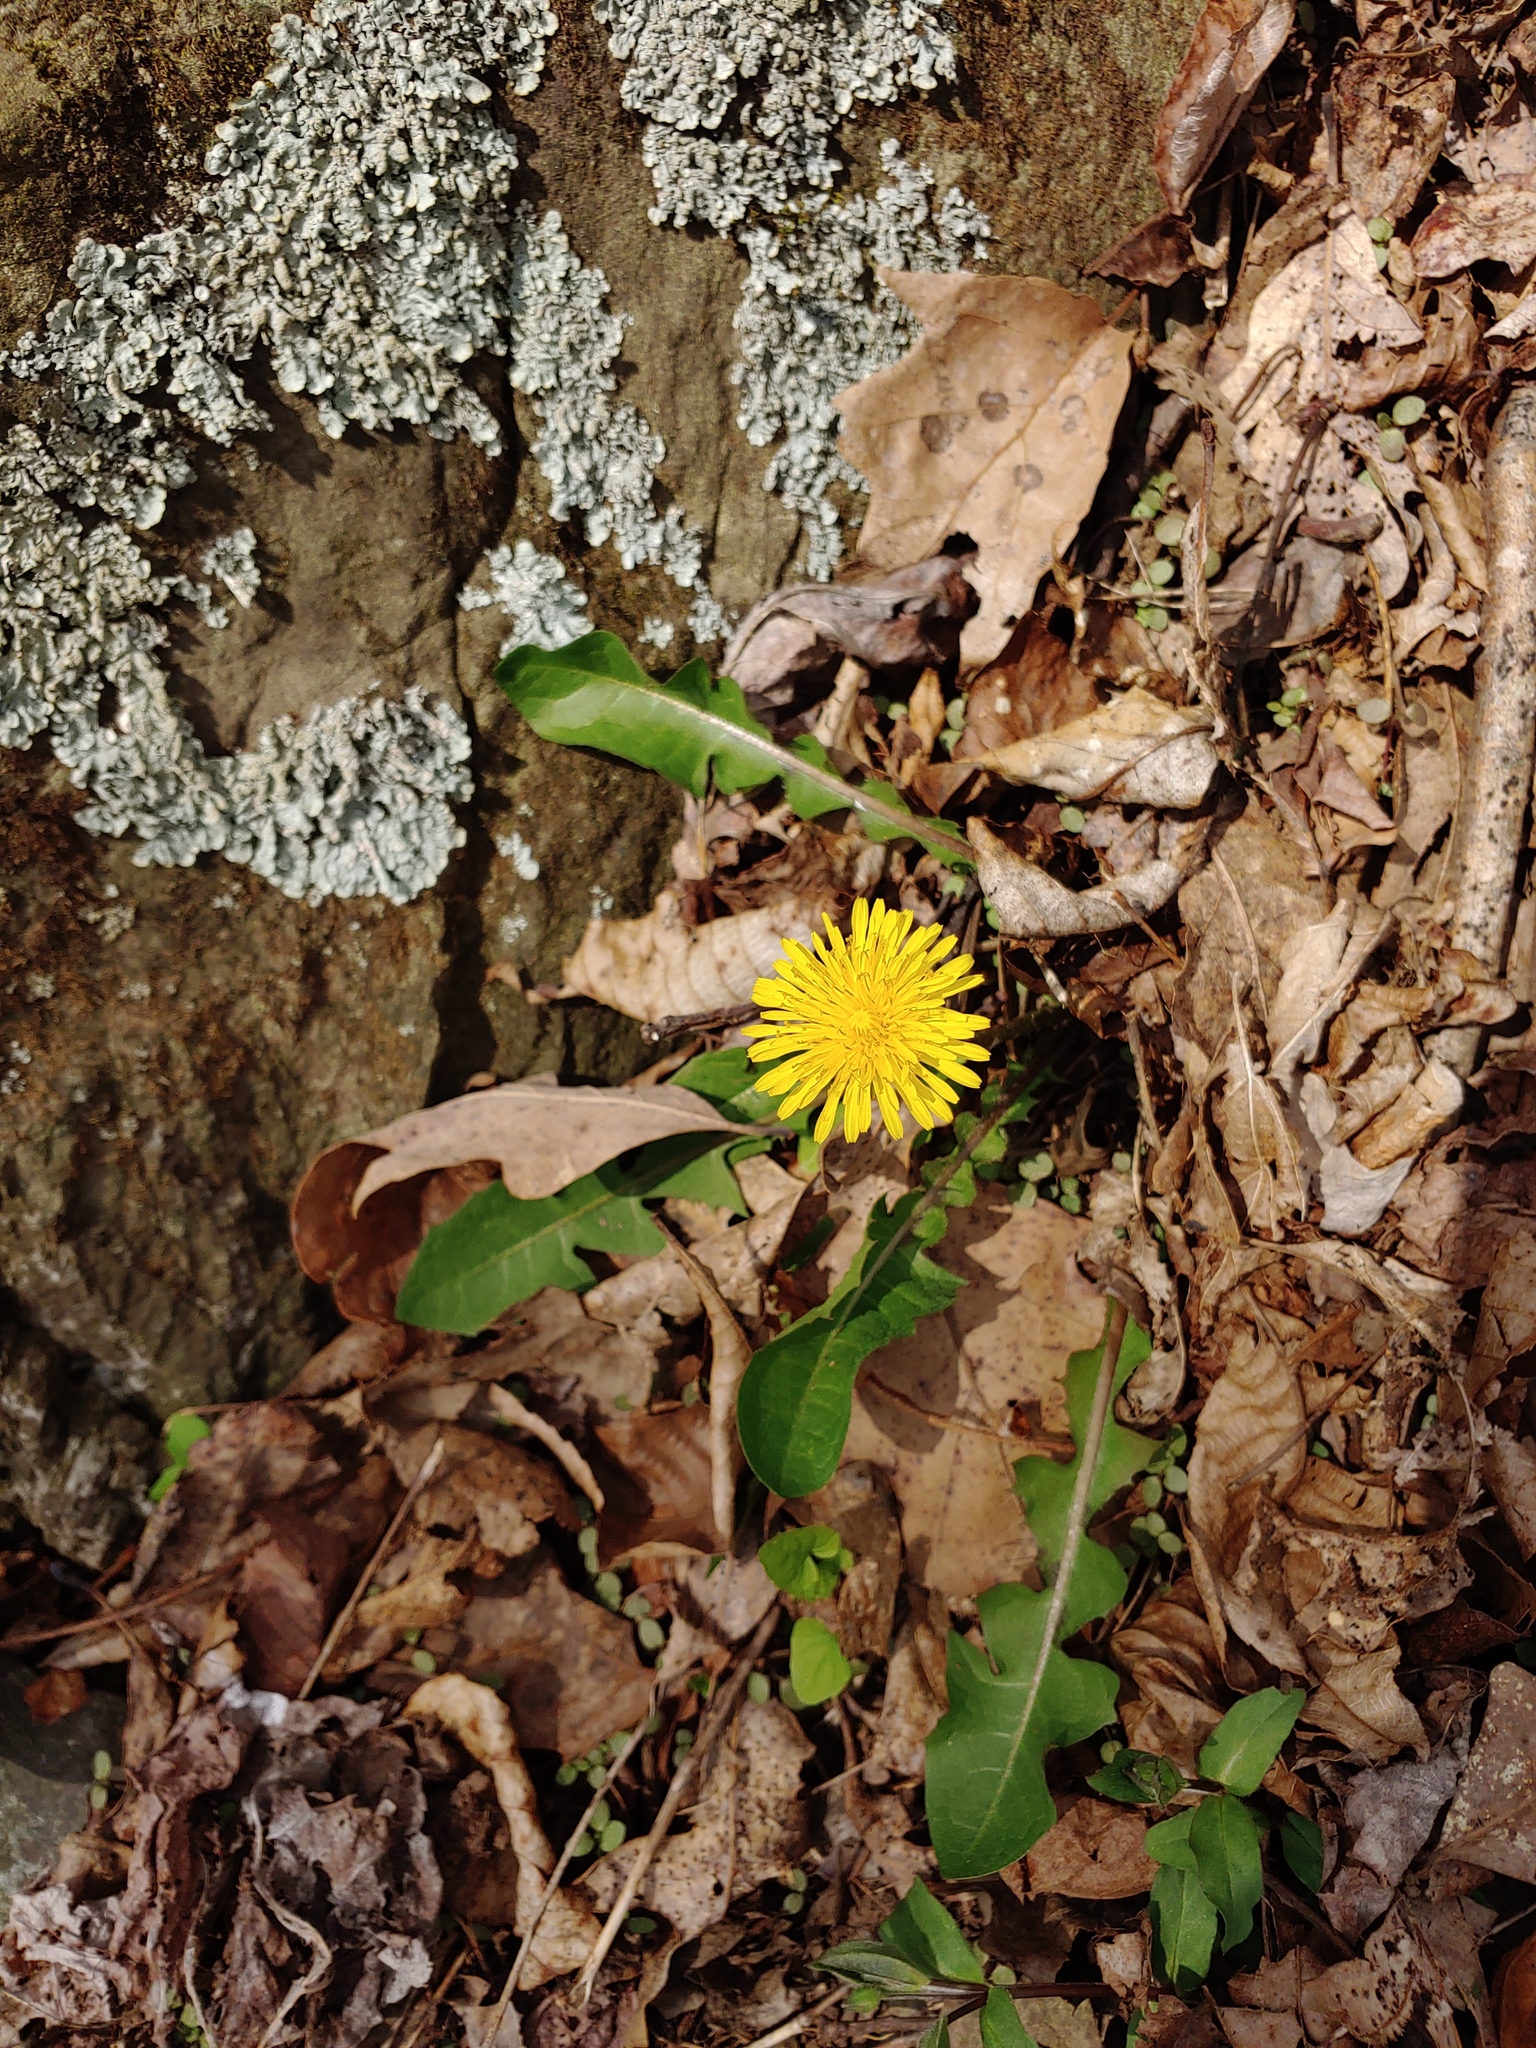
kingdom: Plantae
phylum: Tracheophyta
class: Magnoliopsida
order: Asterales
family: Asteraceae
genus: Taraxacum
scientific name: Taraxacum officinale
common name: Common dandelion
